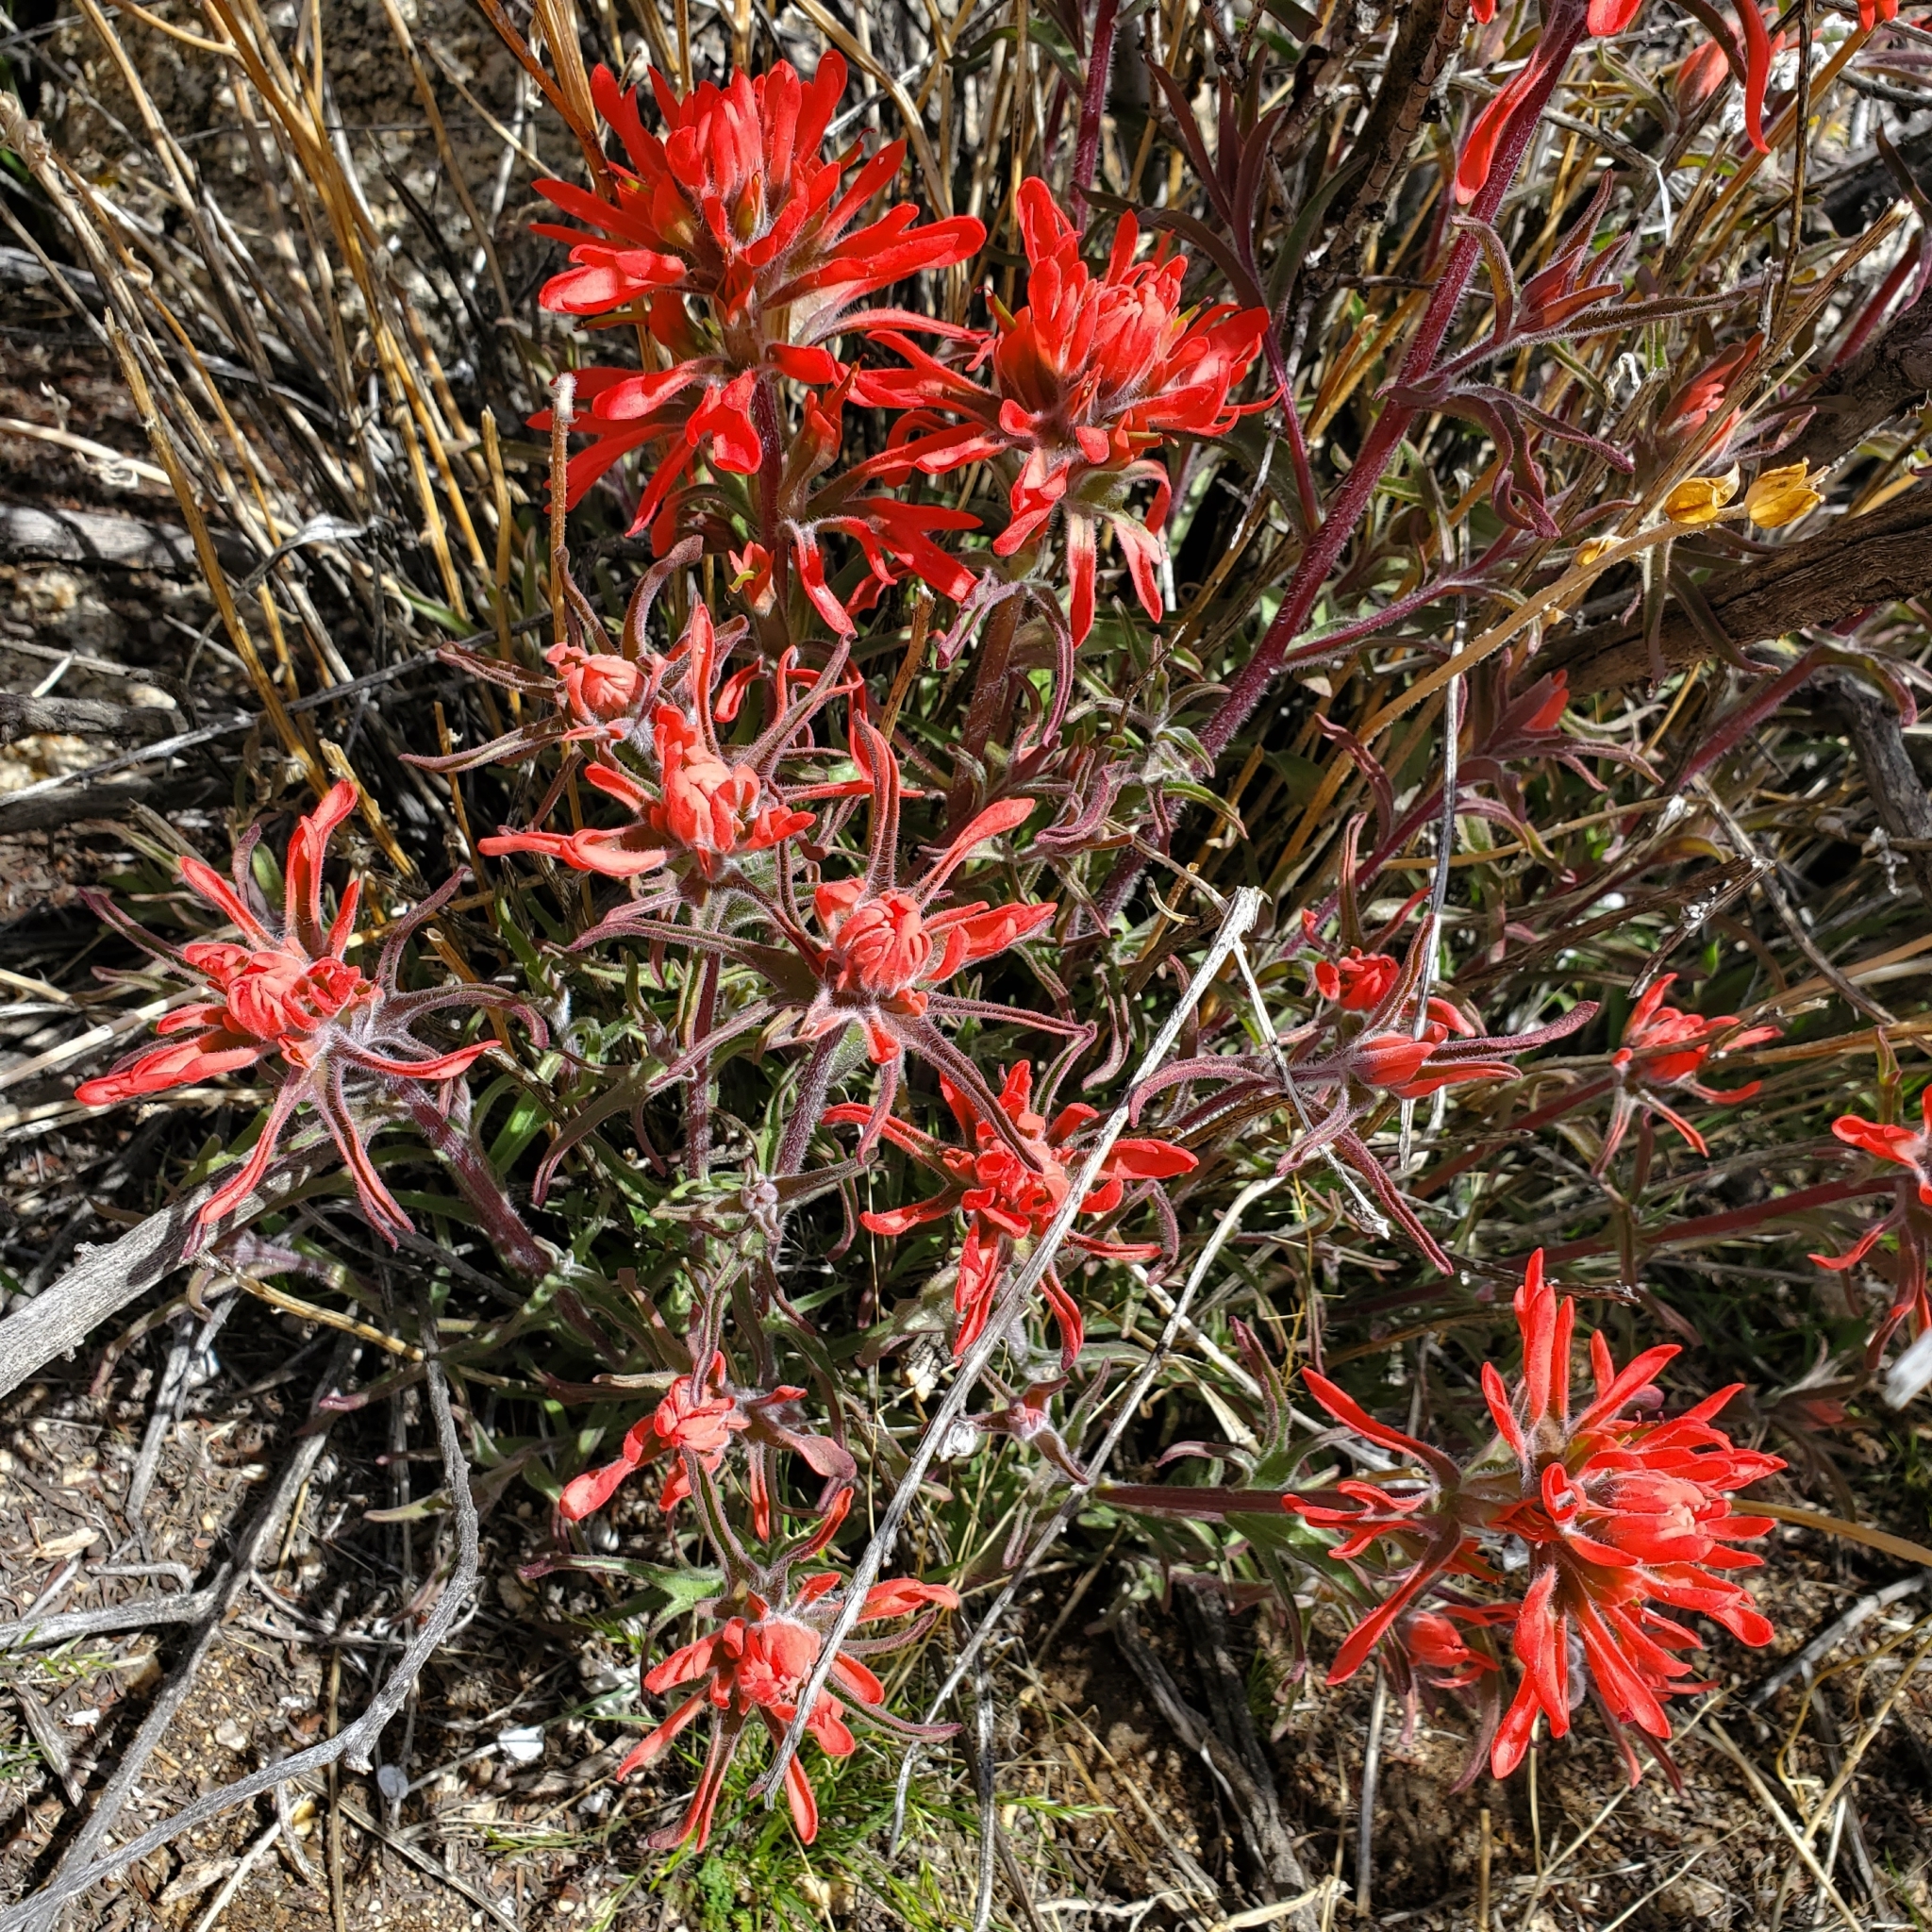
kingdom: Plantae
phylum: Tracheophyta
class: Magnoliopsida
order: Lamiales
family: Orobanchaceae
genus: Castilleja
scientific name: Castilleja chromosa
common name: Desert paintbrush
